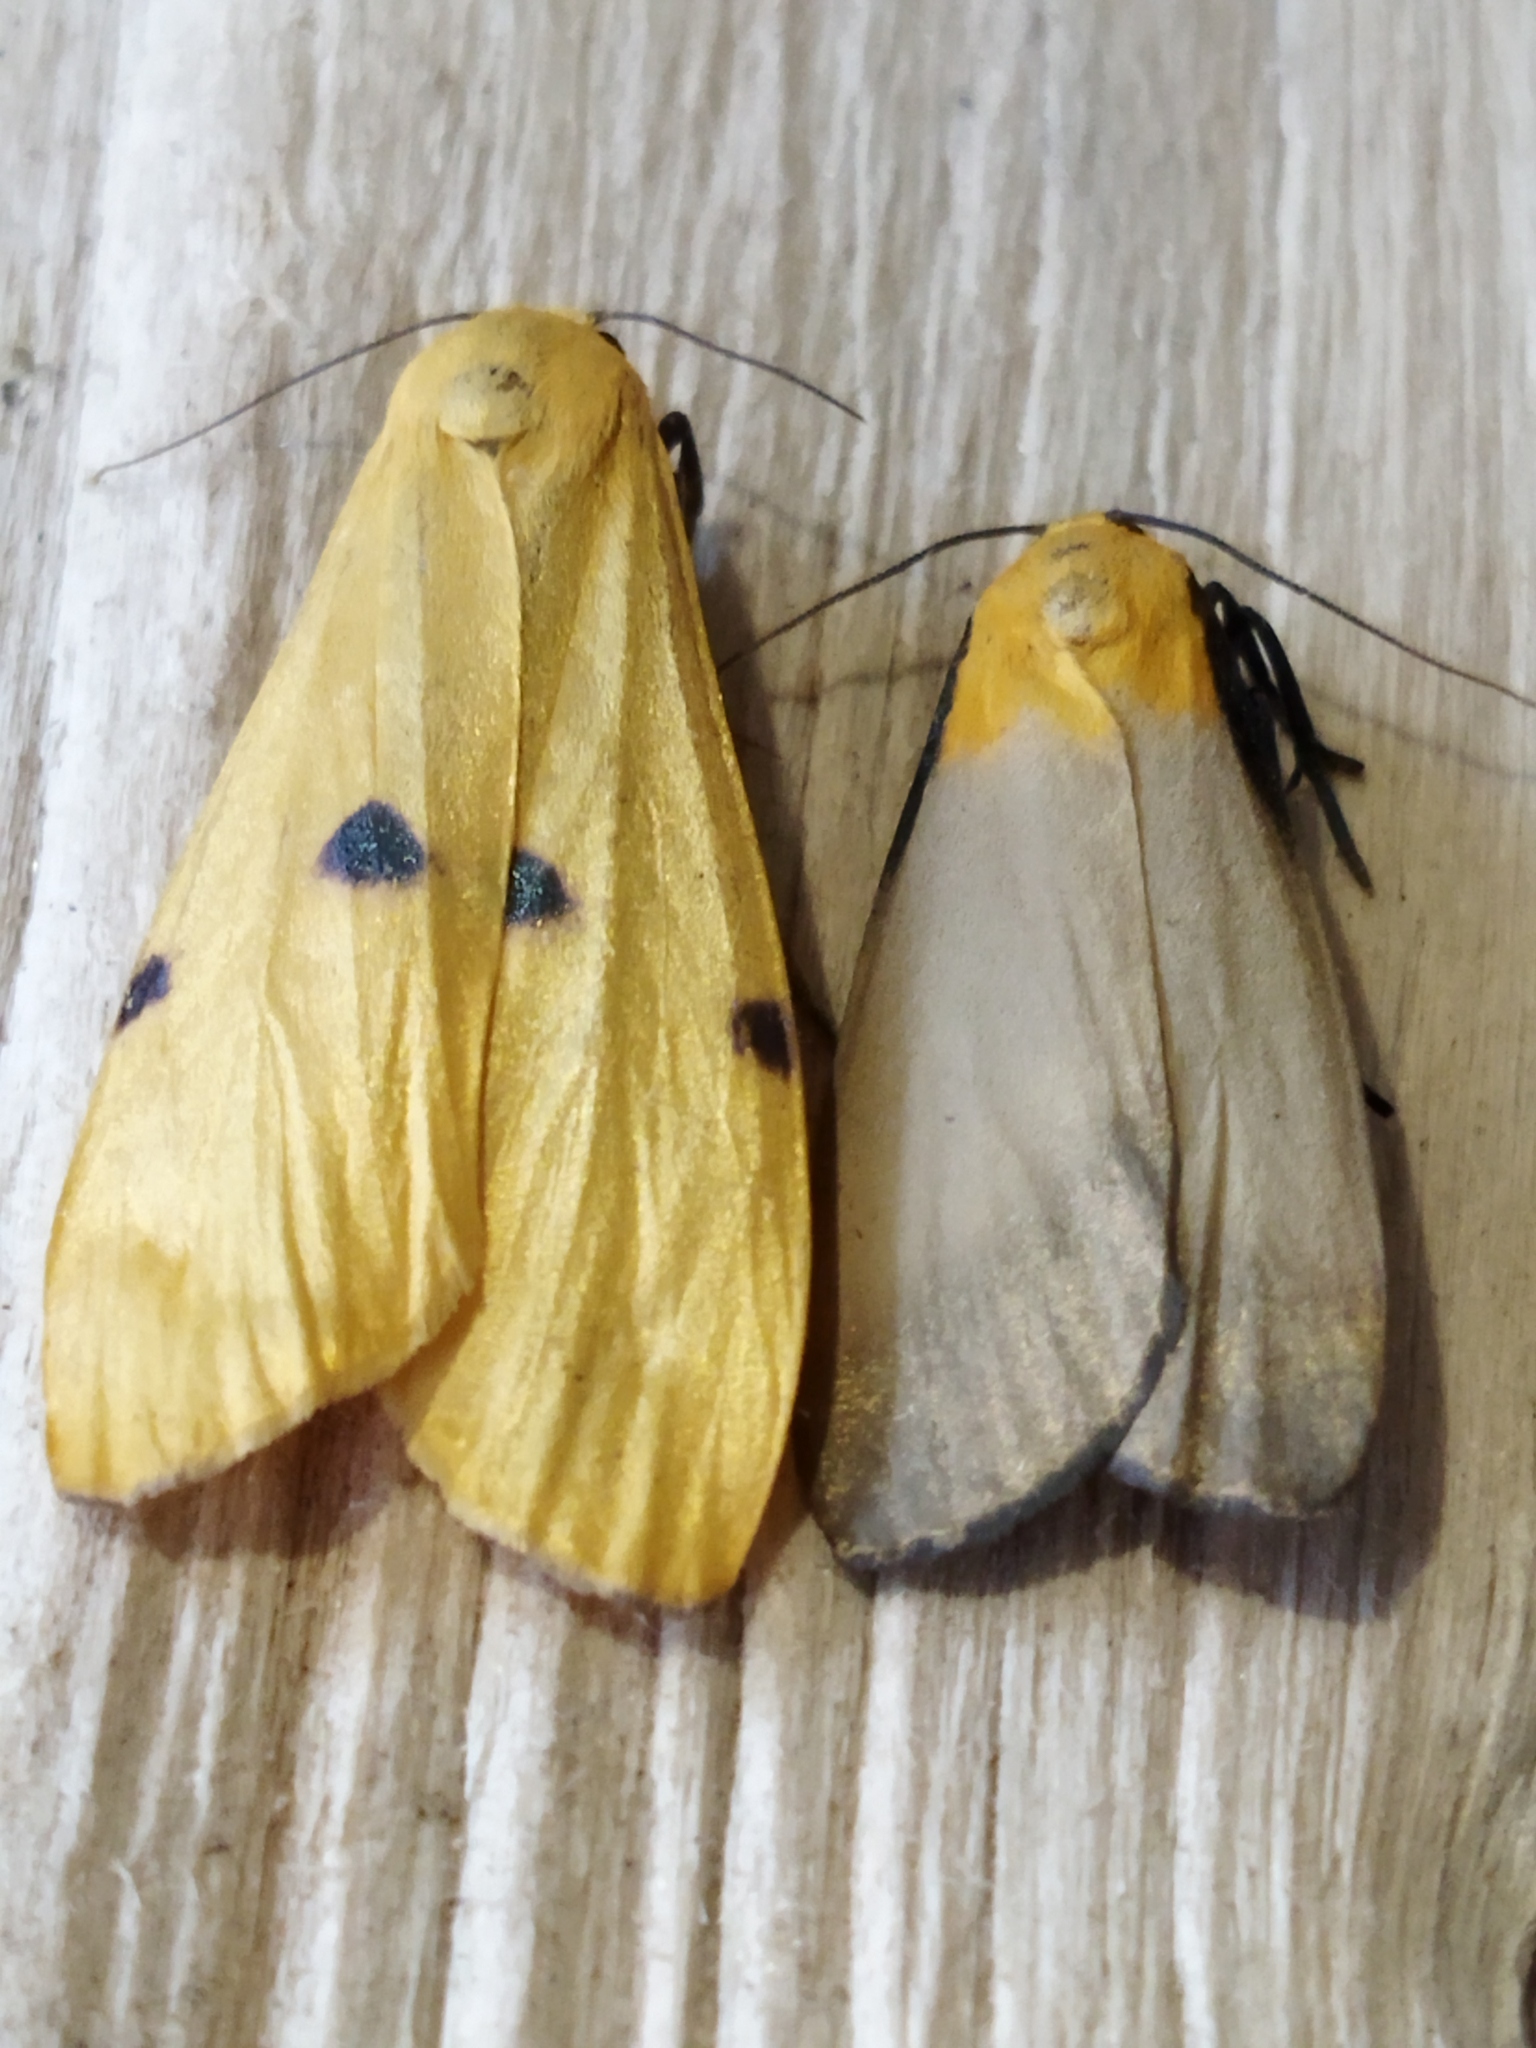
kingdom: Animalia
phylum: Arthropoda
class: Insecta
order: Lepidoptera
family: Erebidae
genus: Lithosia
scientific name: Lithosia quadra
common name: Four-spotted footman
